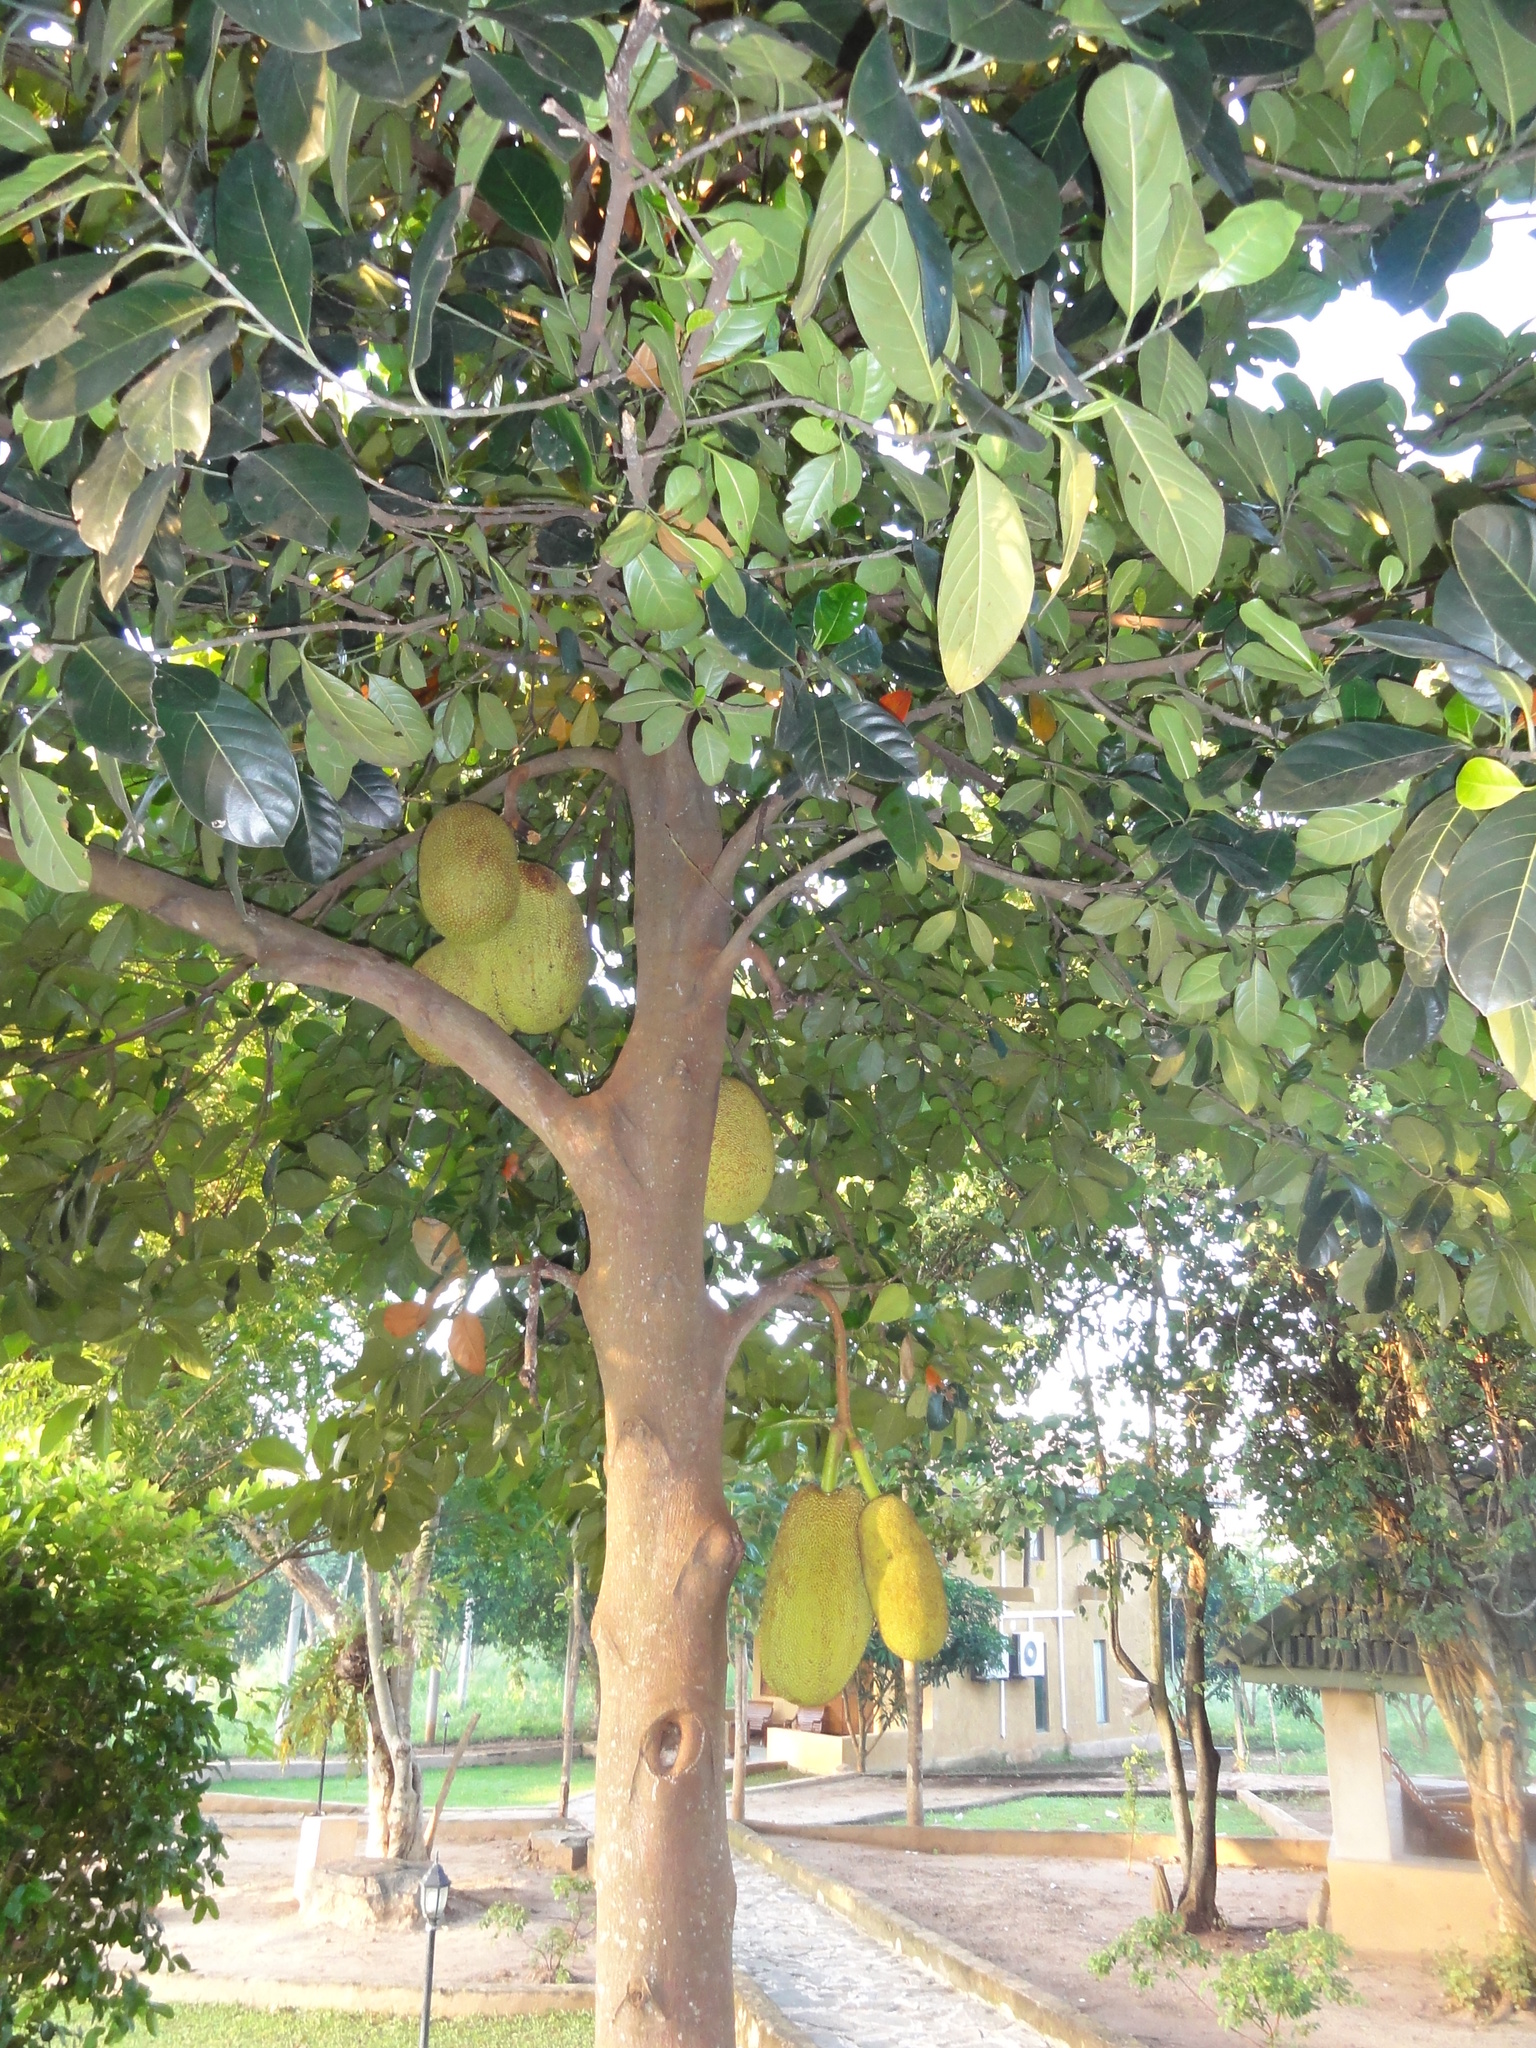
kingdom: Plantae
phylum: Tracheophyta
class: Magnoliopsida
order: Rosales
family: Moraceae
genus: Artocarpus
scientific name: Artocarpus heterophyllus
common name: Jackfruit
